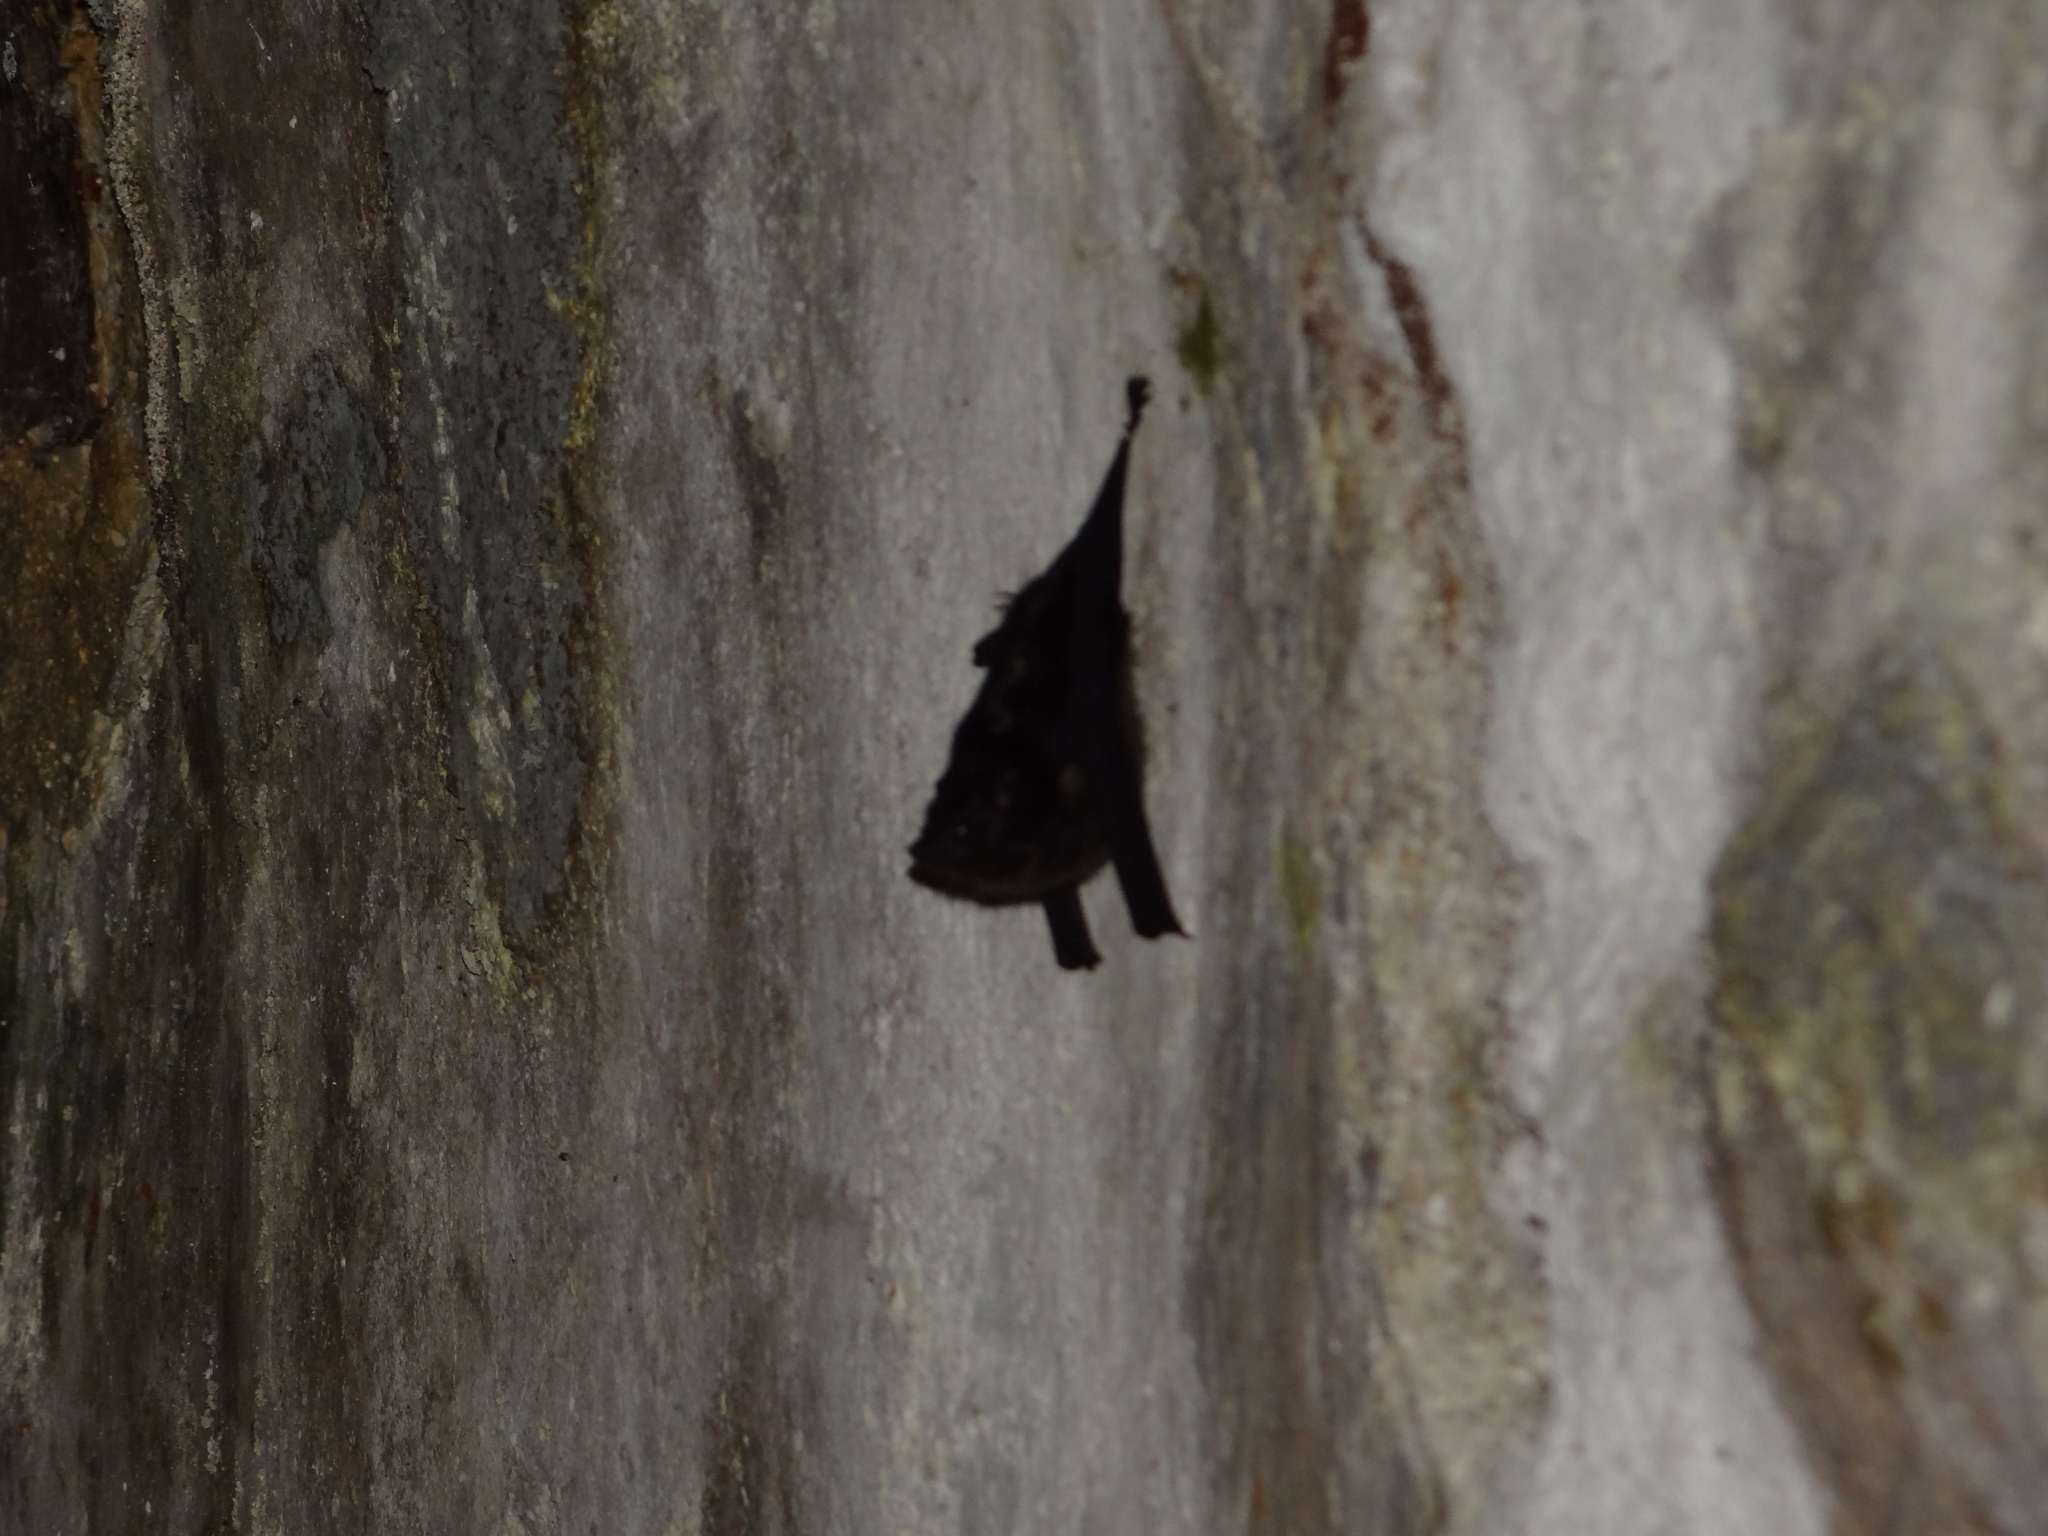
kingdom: Animalia
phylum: Chordata
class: Mammalia
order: Chiroptera
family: Emballonuridae
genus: Saccopteryx
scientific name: Saccopteryx bilineata
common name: Greater sac-winged bat
